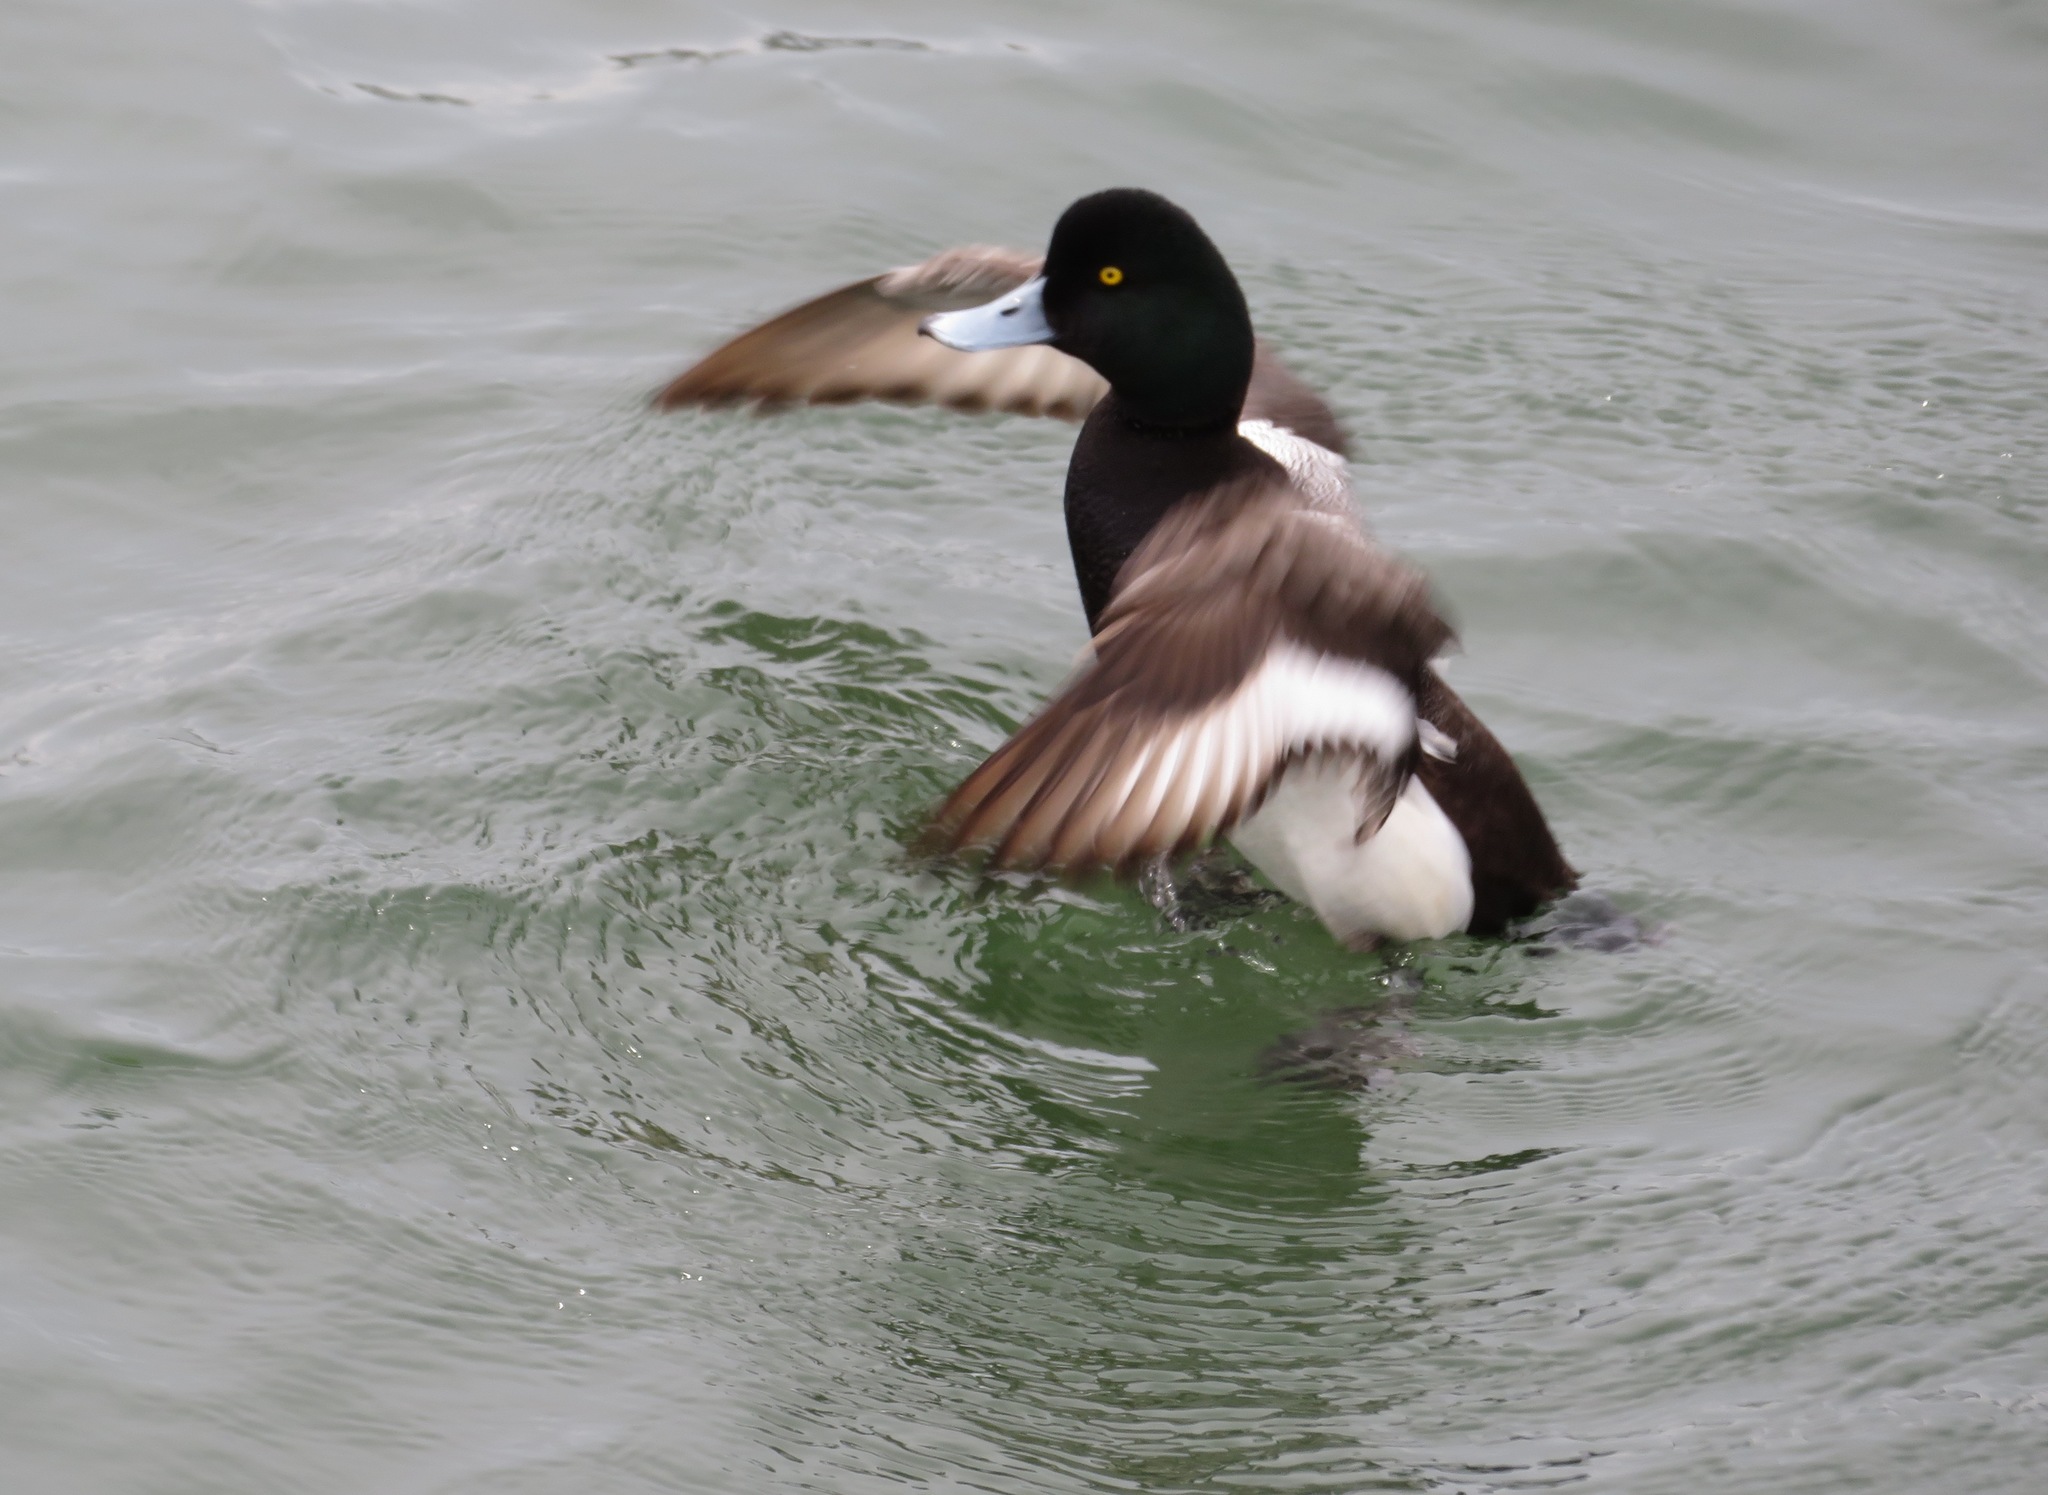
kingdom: Animalia
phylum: Chordata
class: Aves
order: Anseriformes
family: Anatidae
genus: Aythya
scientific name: Aythya marila
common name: Greater scaup
